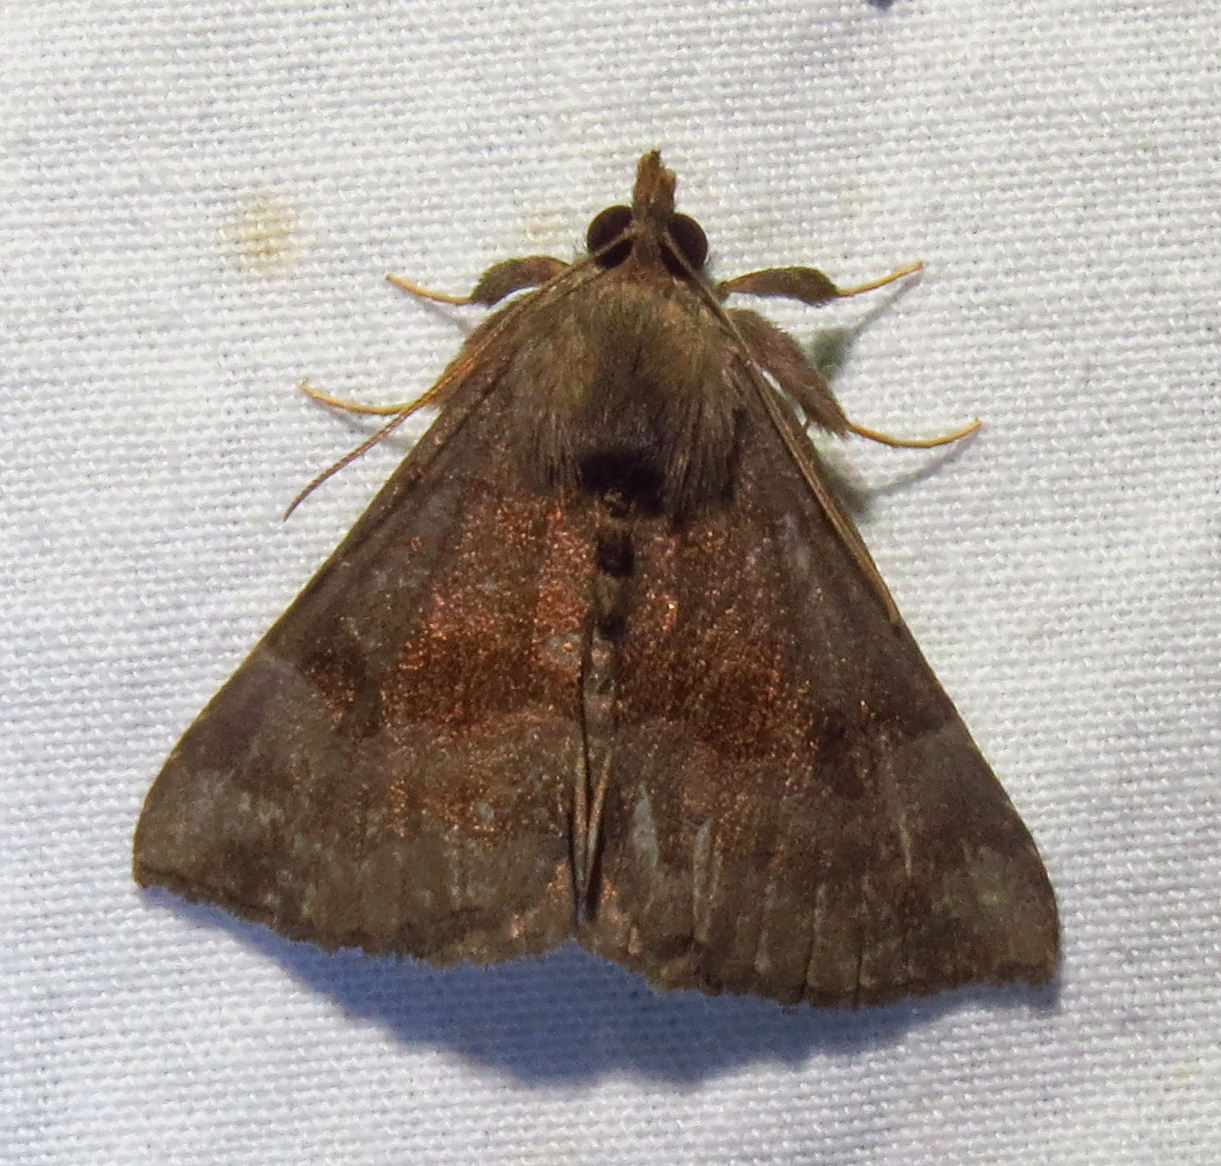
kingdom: Animalia
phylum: Arthropoda
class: Insecta
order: Lepidoptera
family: Erebidae
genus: Hypena
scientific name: Hypena madefactalis
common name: Gray-edged snout
